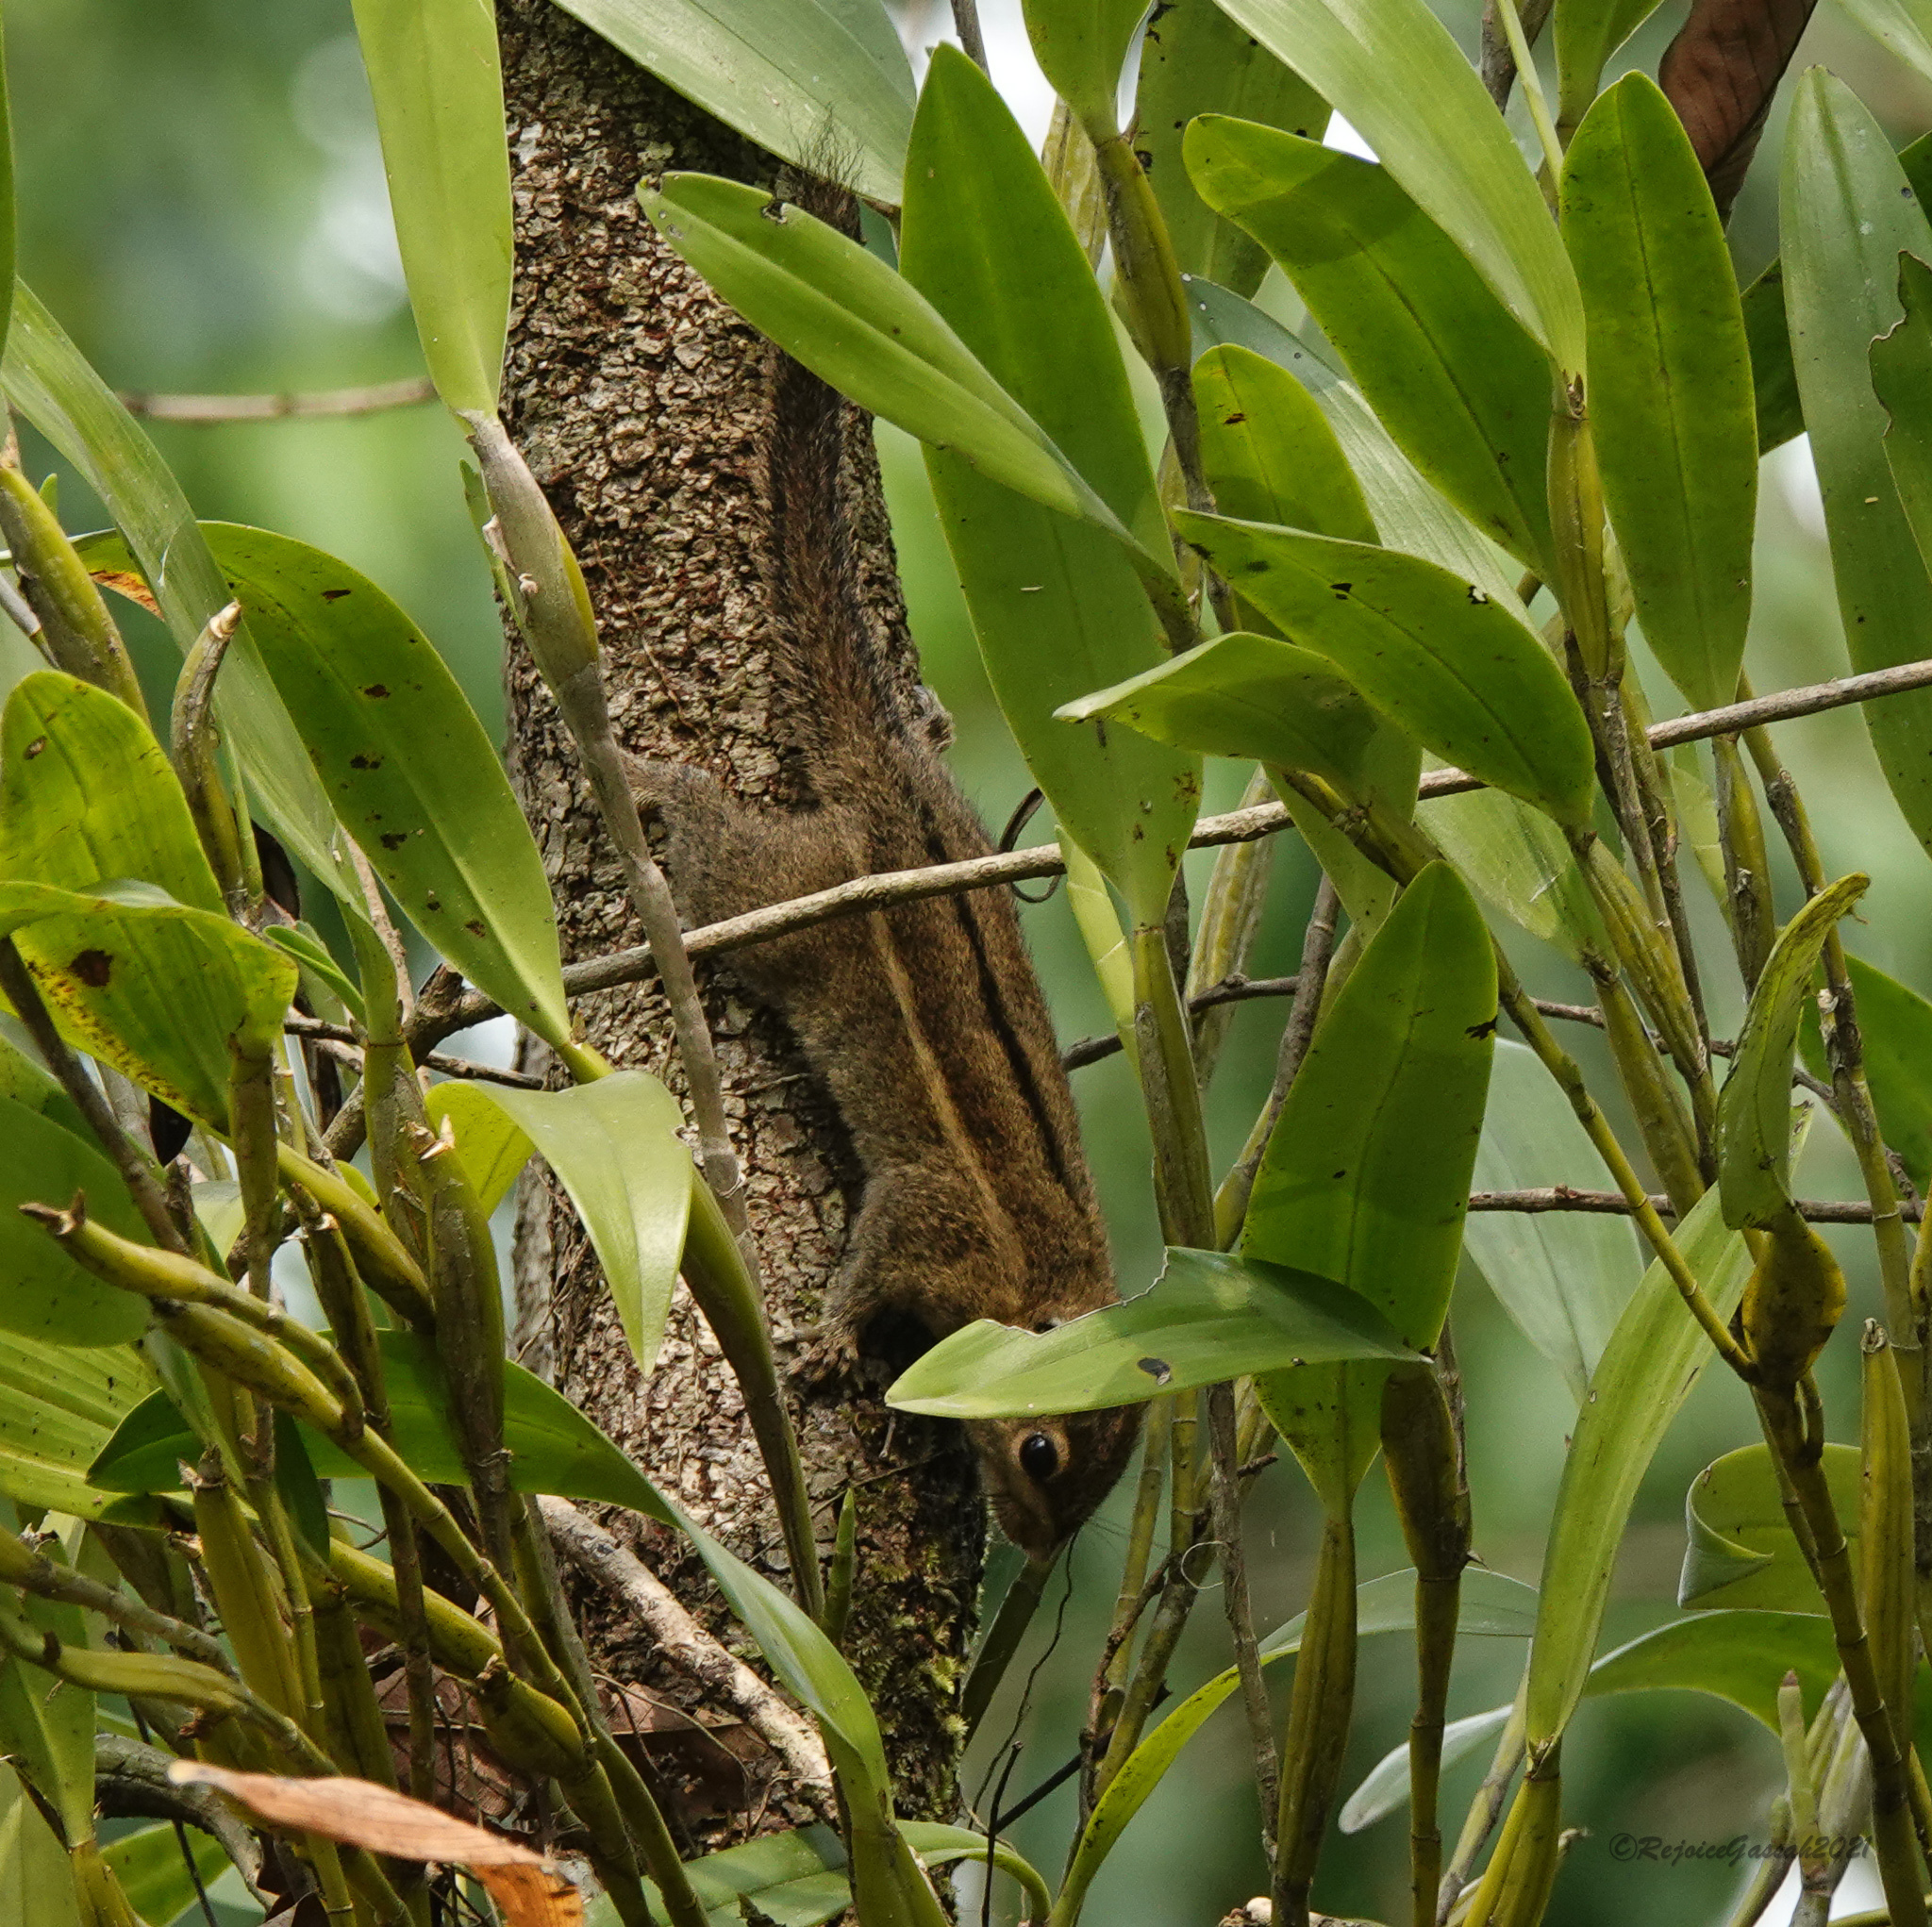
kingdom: Animalia
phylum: Chordata
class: Mammalia
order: Rodentia
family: Sciuridae
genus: Tamiops
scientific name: Tamiops mcclellandii
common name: Himalayan striped squirrel
